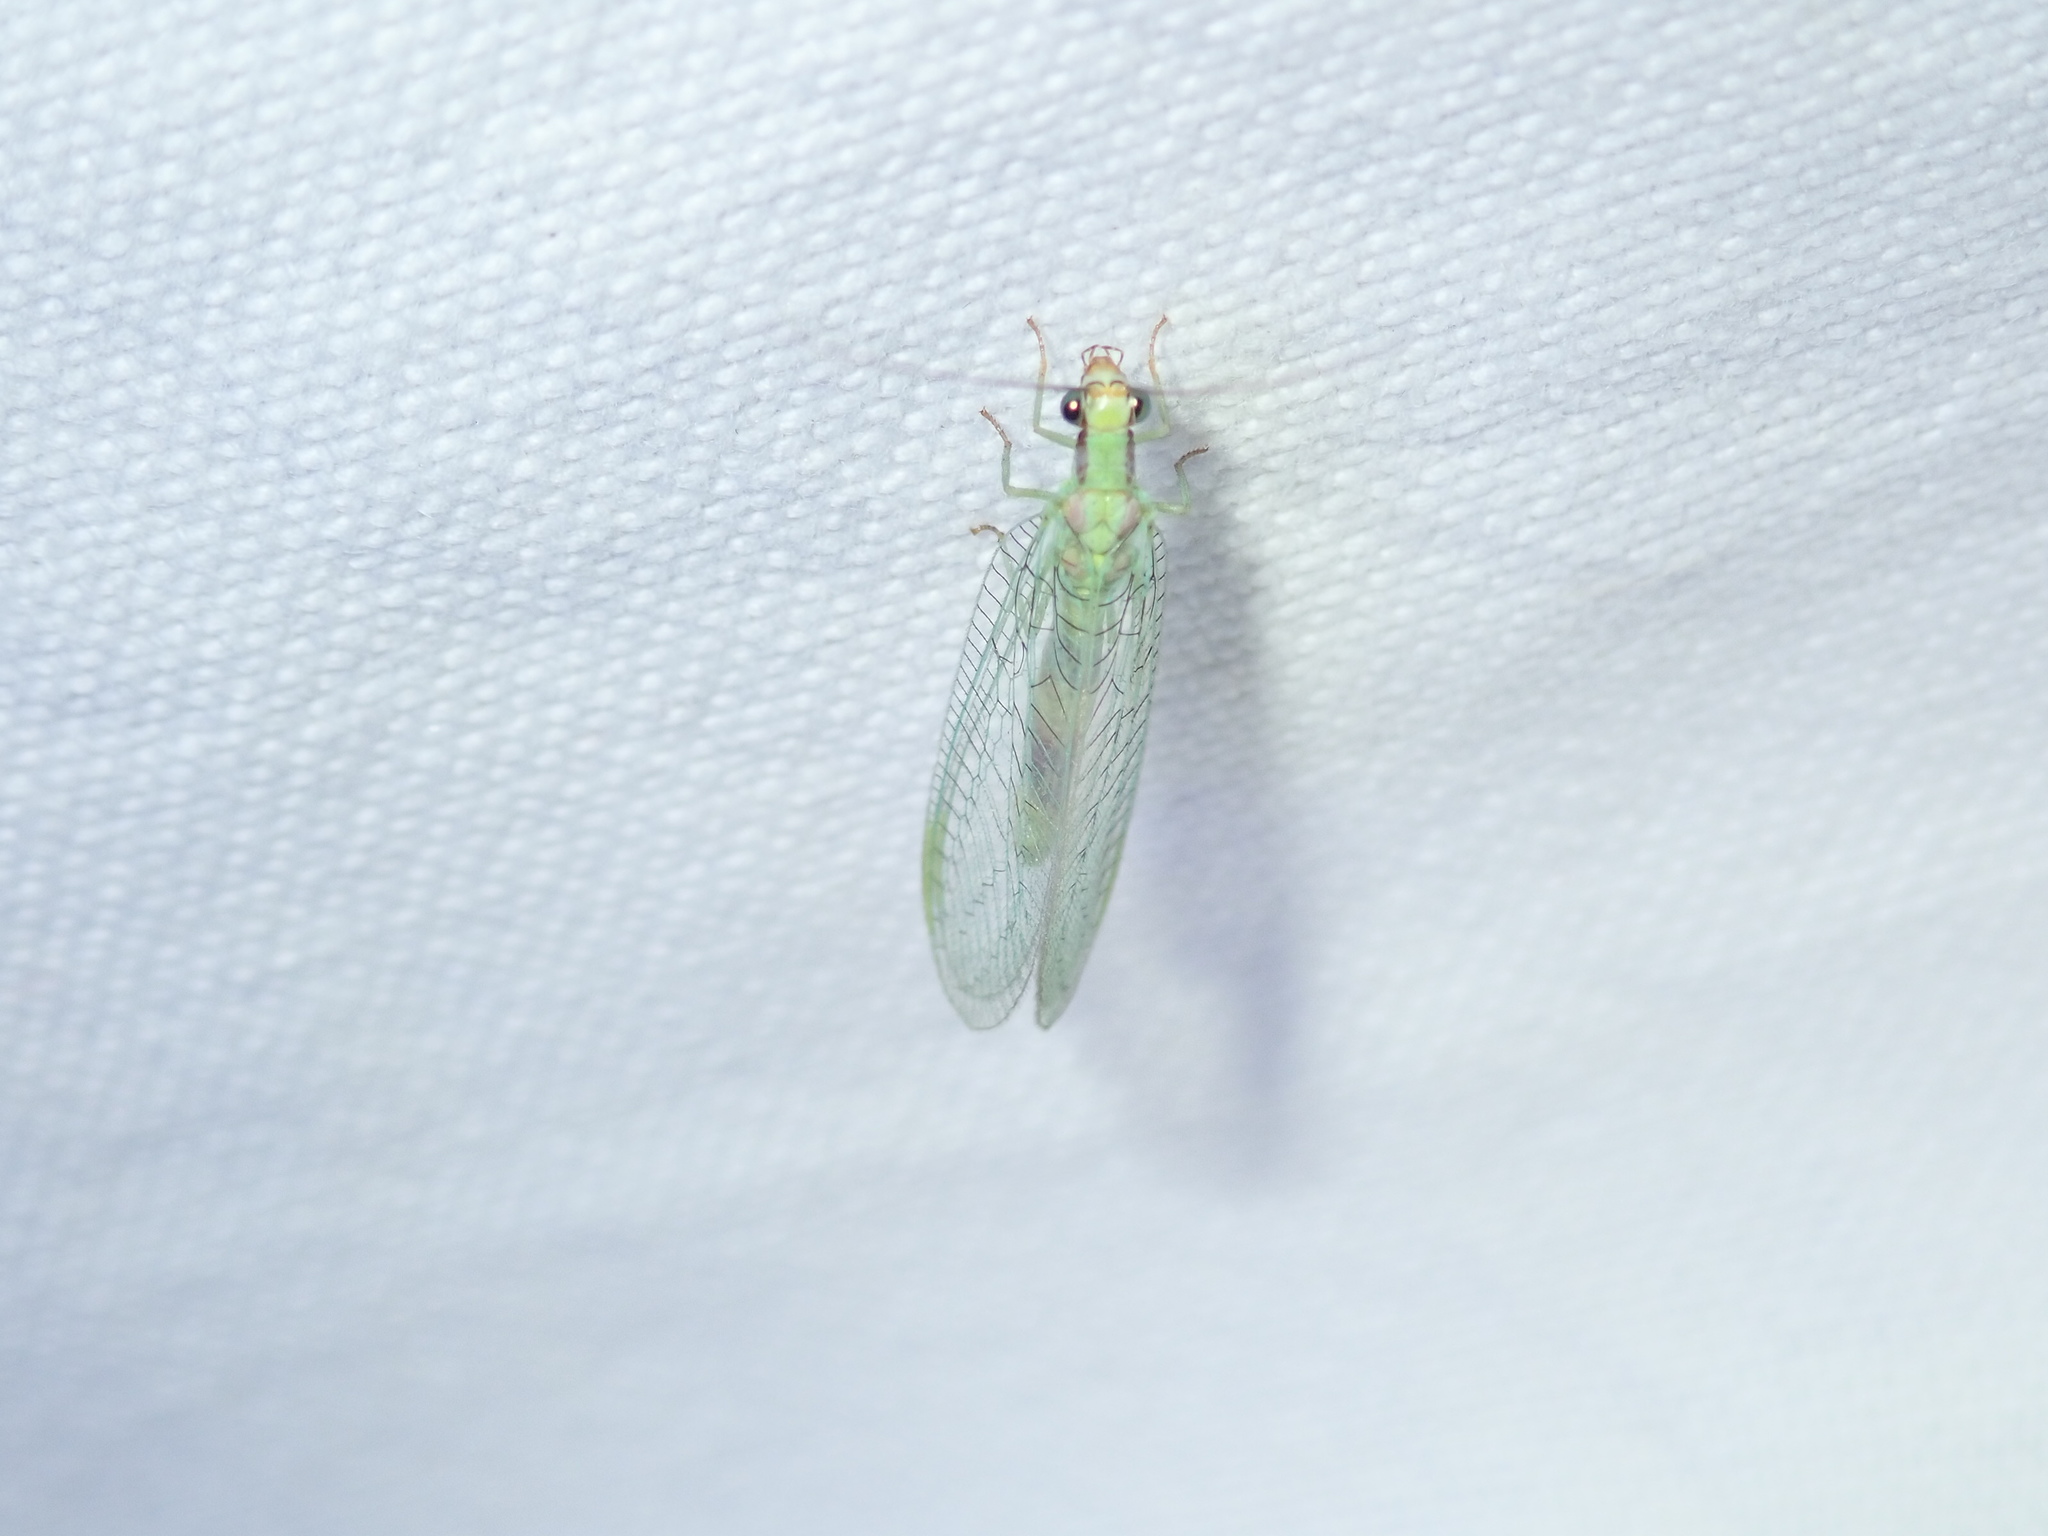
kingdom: Animalia
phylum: Arthropoda
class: Insecta
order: Neuroptera
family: Chrysopidae
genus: Chrysopa
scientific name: Chrysopa coloradensis
